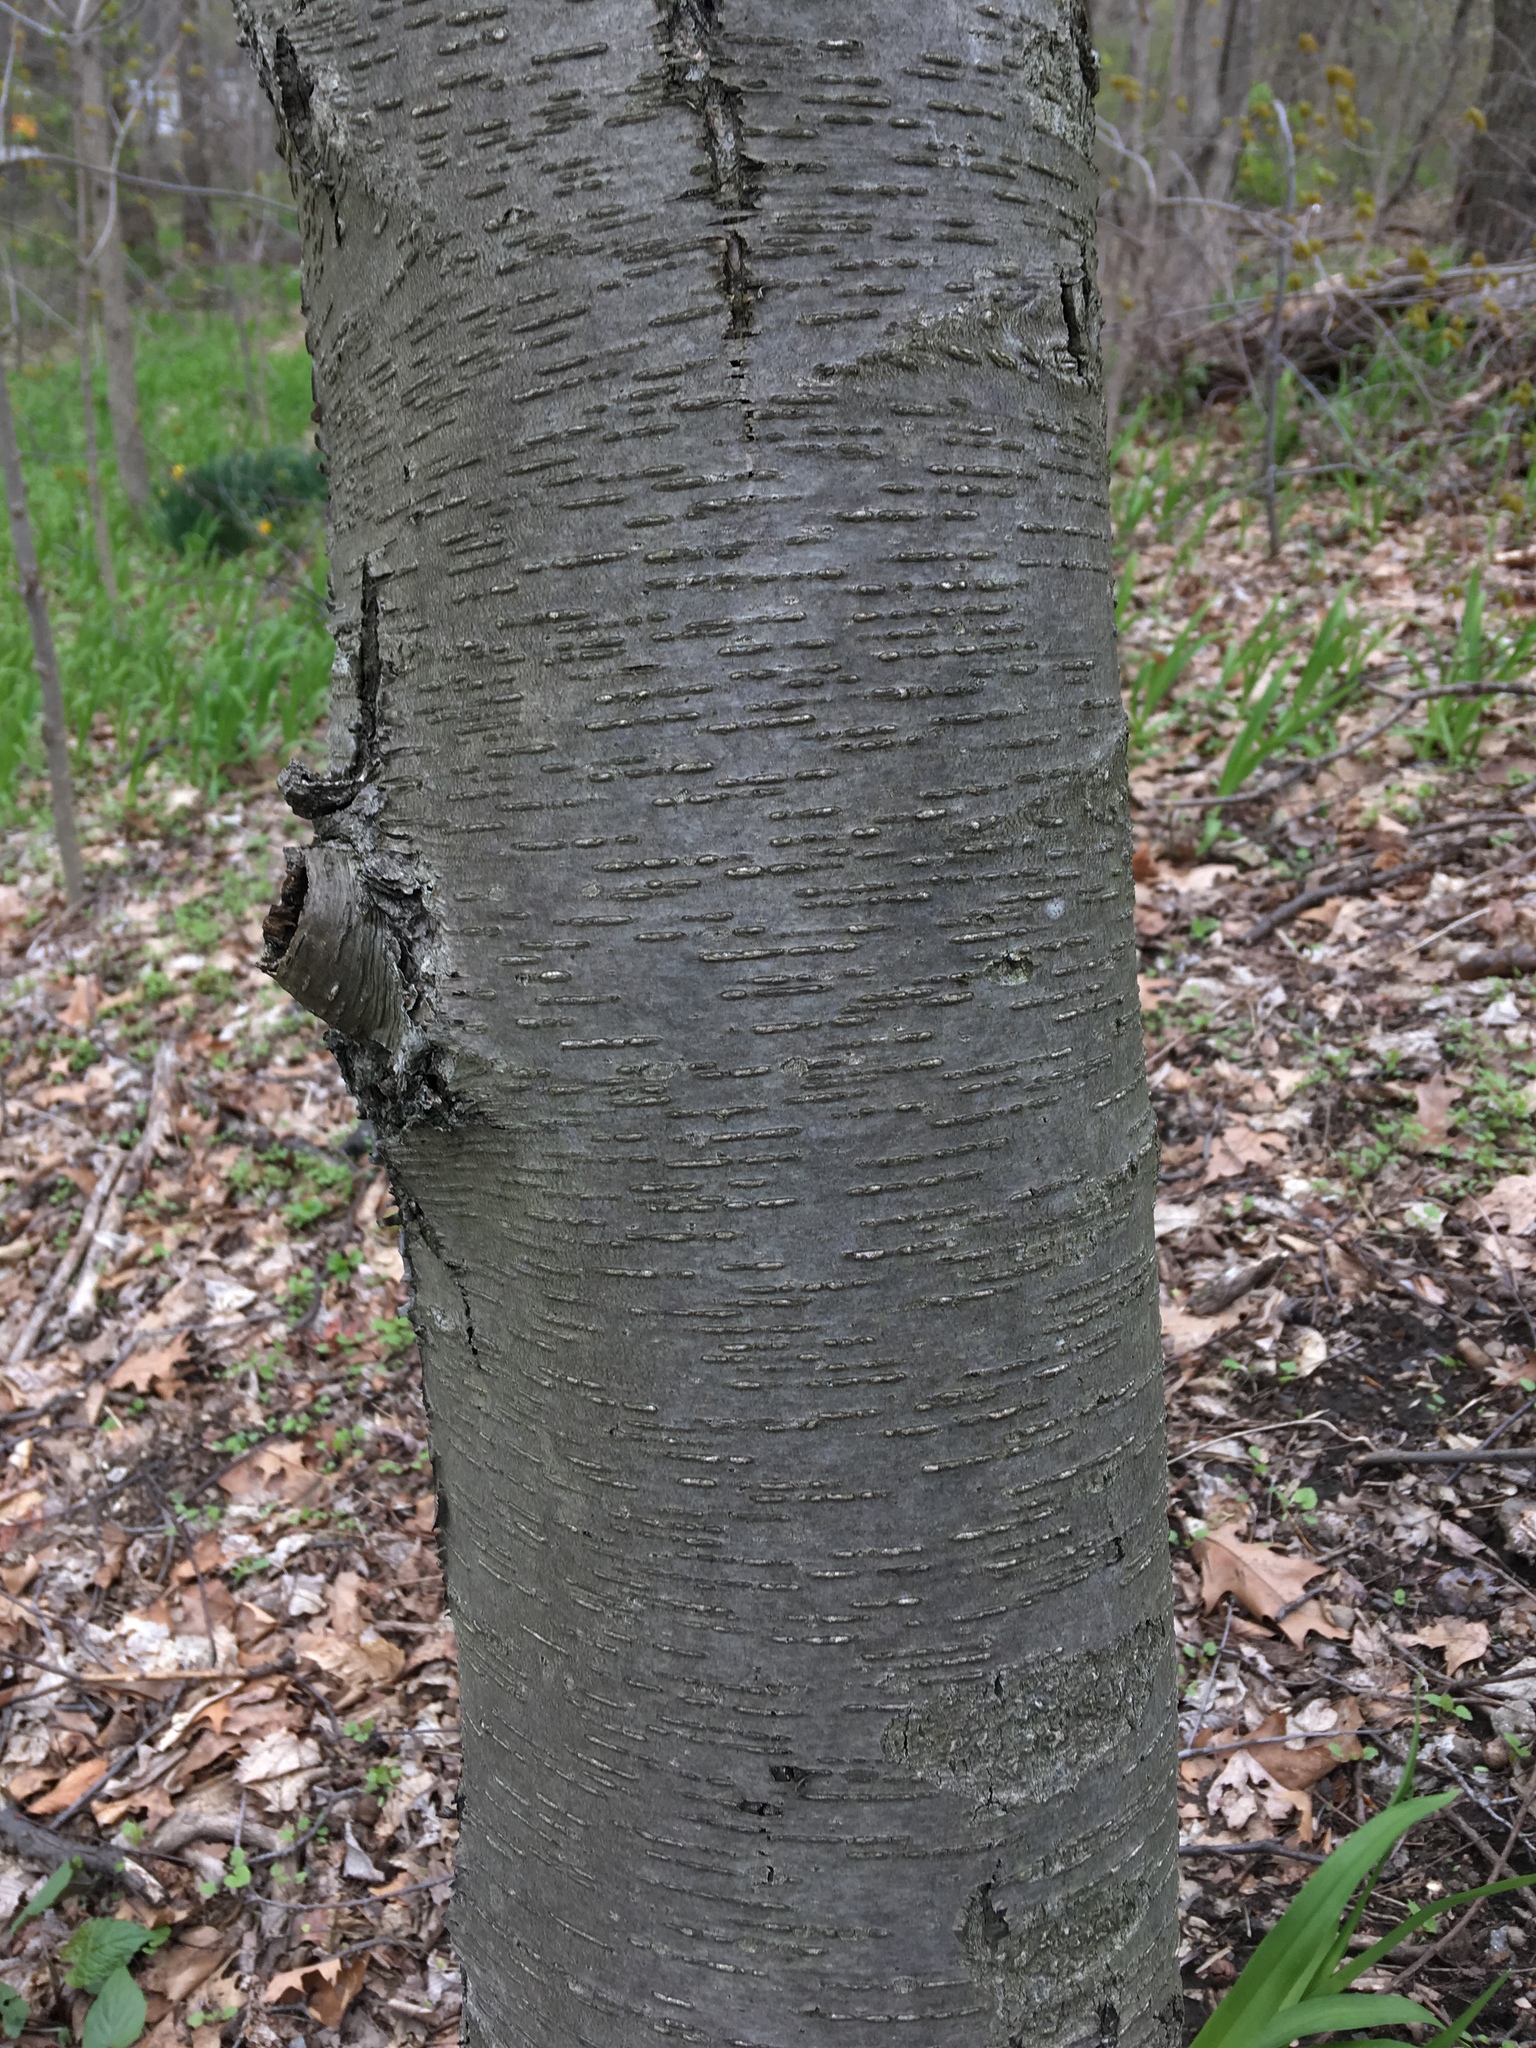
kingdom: Plantae
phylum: Tracheophyta
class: Magnoliopsida
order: Fagales
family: Betulaceae
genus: Betula
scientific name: Betula lenta
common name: Black birch
